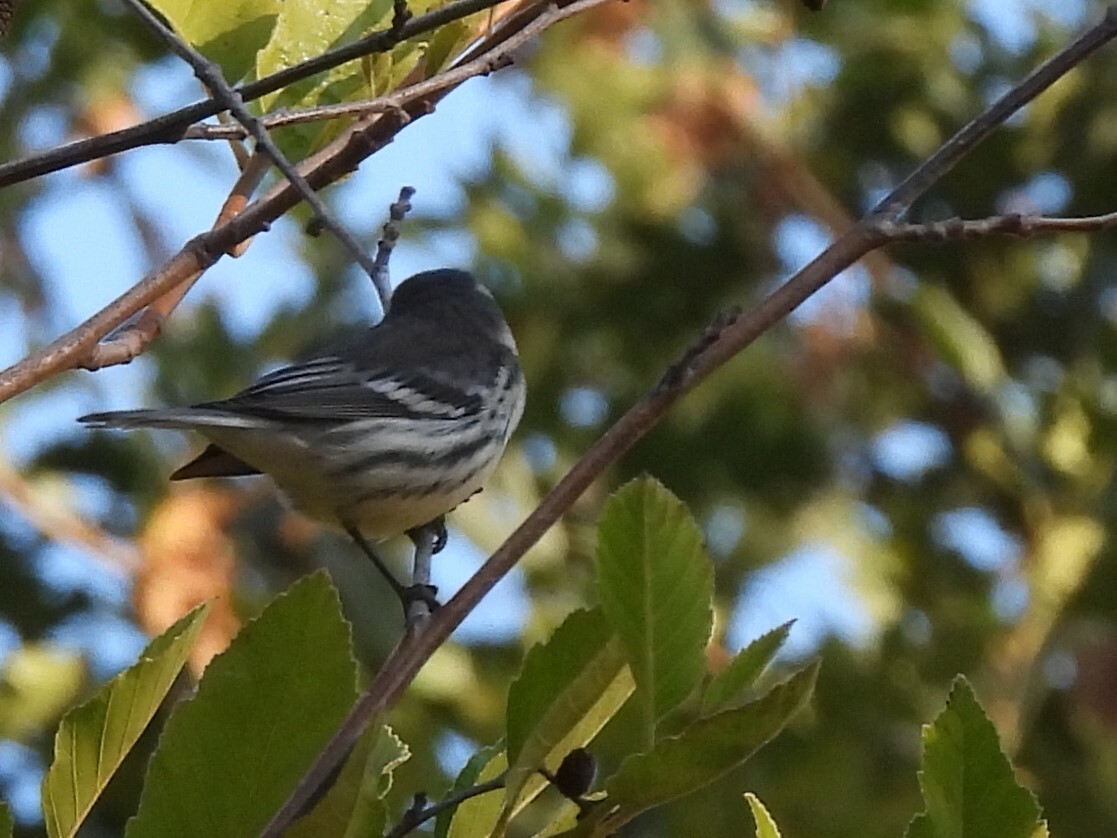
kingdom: Animalia
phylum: Chordata
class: Aves
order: Passeriformes
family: Parulidae
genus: Setophaga
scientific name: Setophaga nigrescens
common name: Black-throated gray warbler
